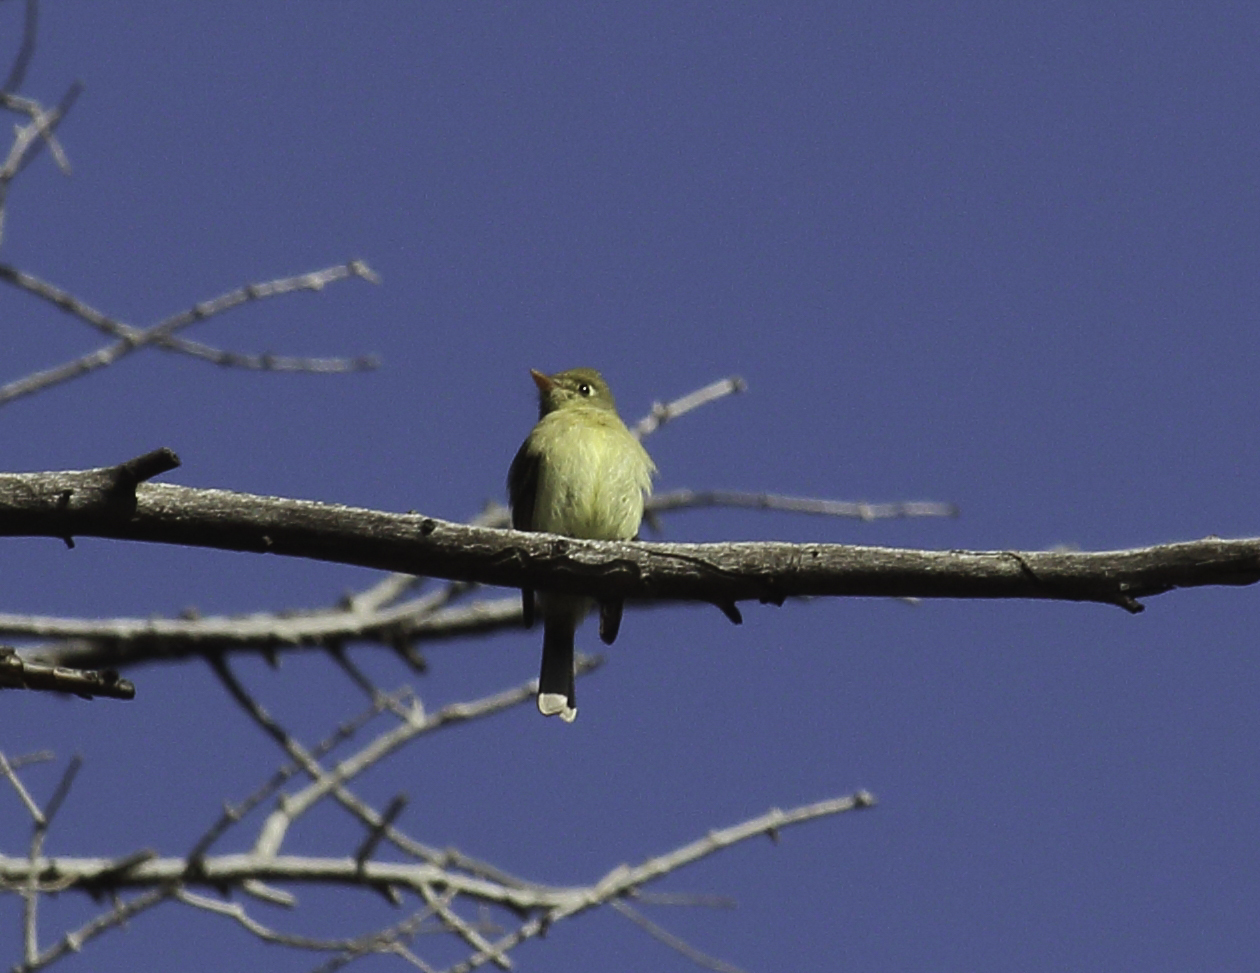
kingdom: Animalia
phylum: Chordata
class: Aves
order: Passeriformes
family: Tyrannidae
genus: Empidonax
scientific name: Empidonax difficilis
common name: Pacific-slope flycatcher
